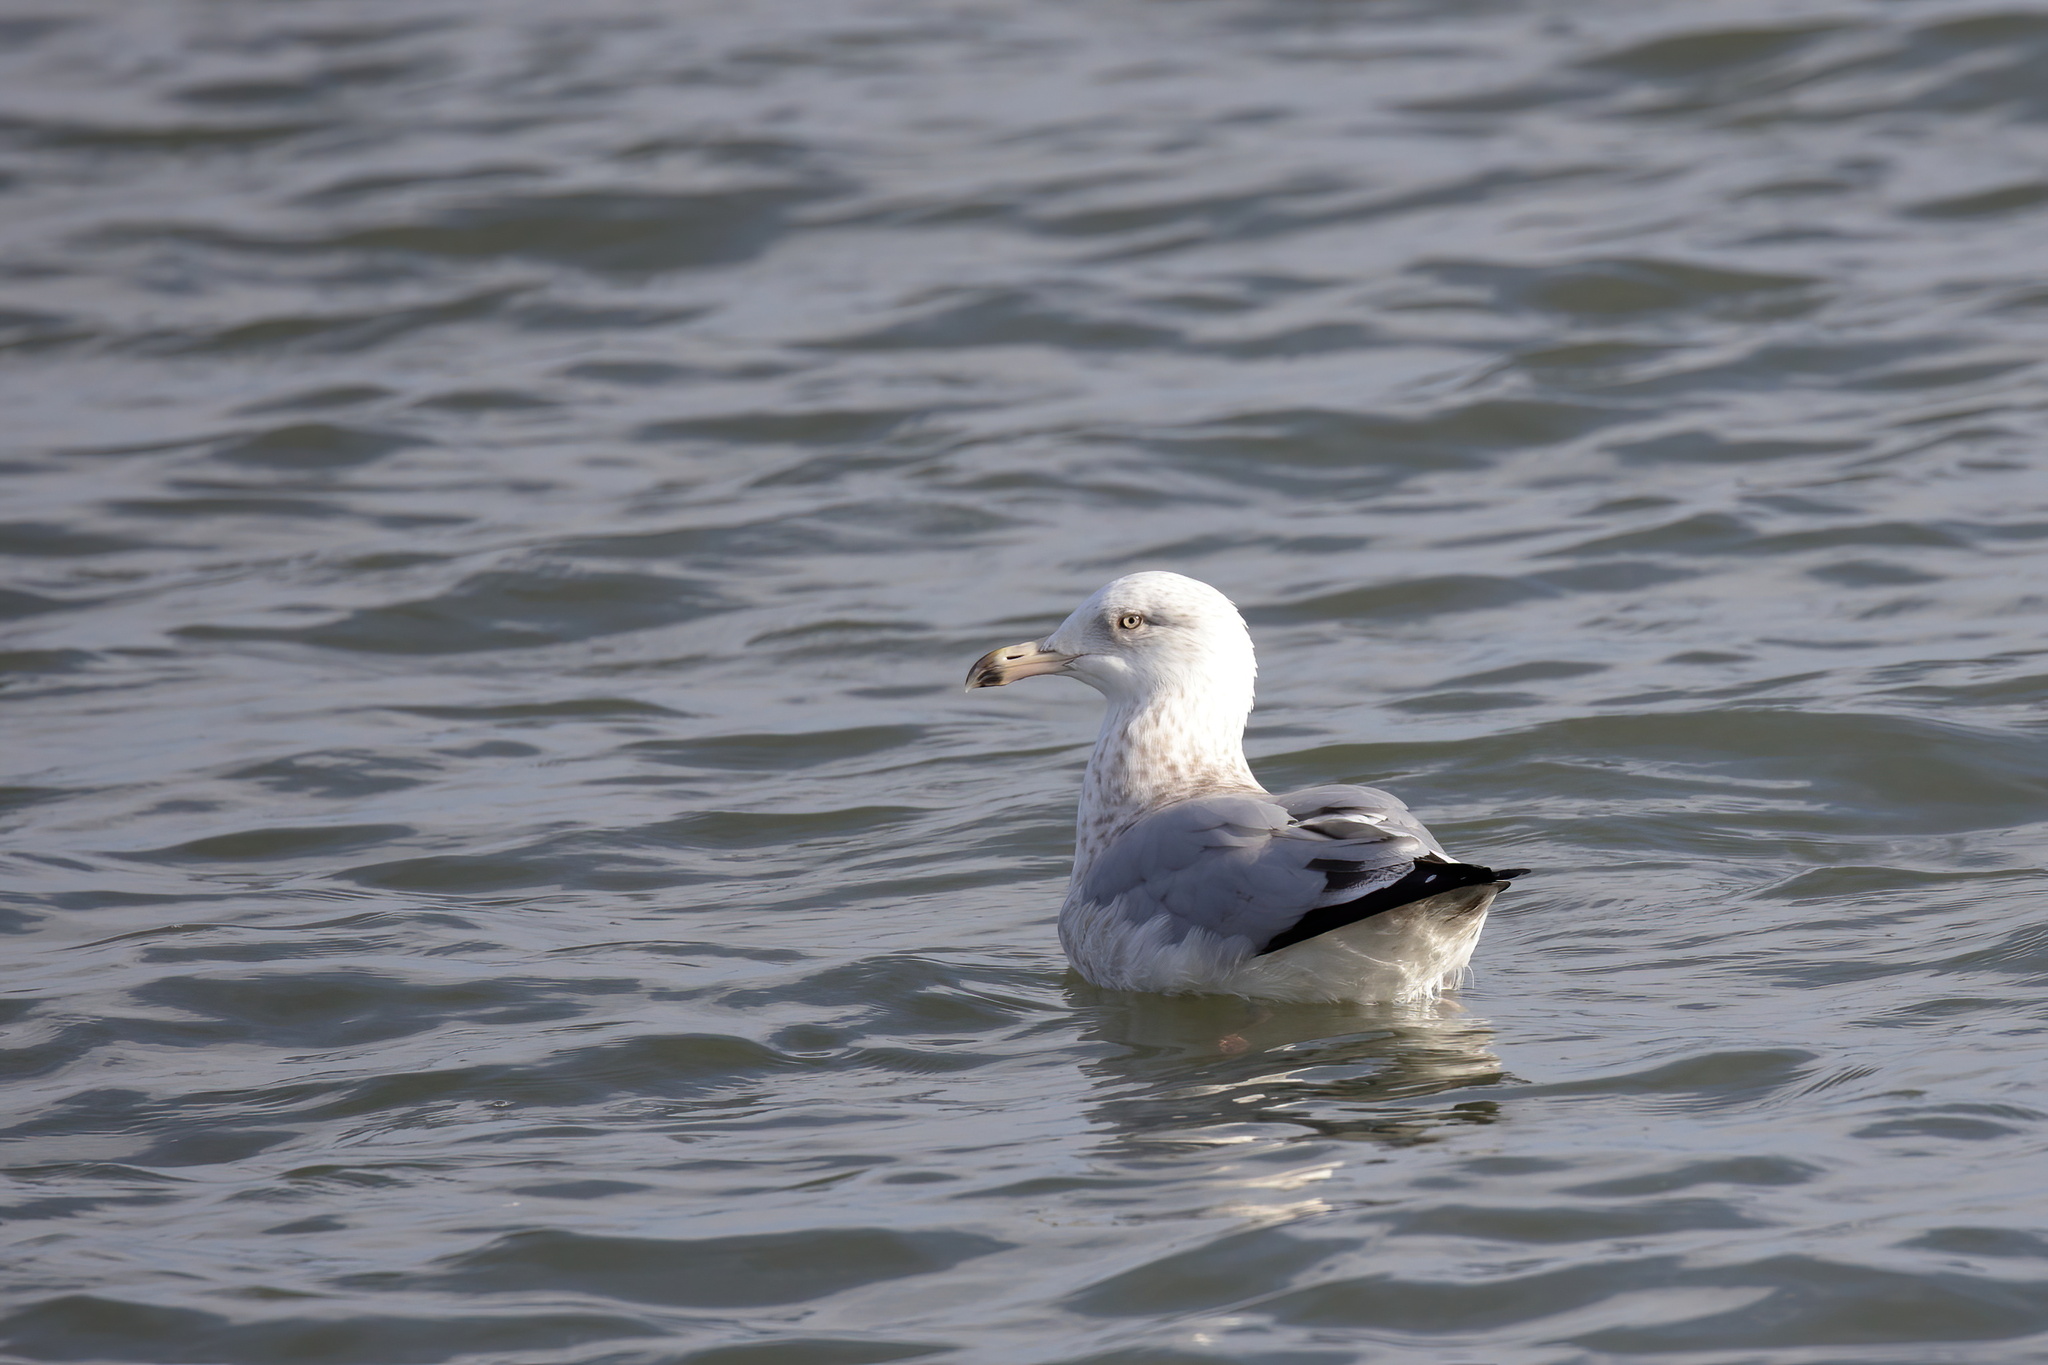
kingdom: Animalia
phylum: Chordata
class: Aves
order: Charadriiformes
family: Laridae
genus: Larus
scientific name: Larus delawarensis
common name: Ring-billed gull
